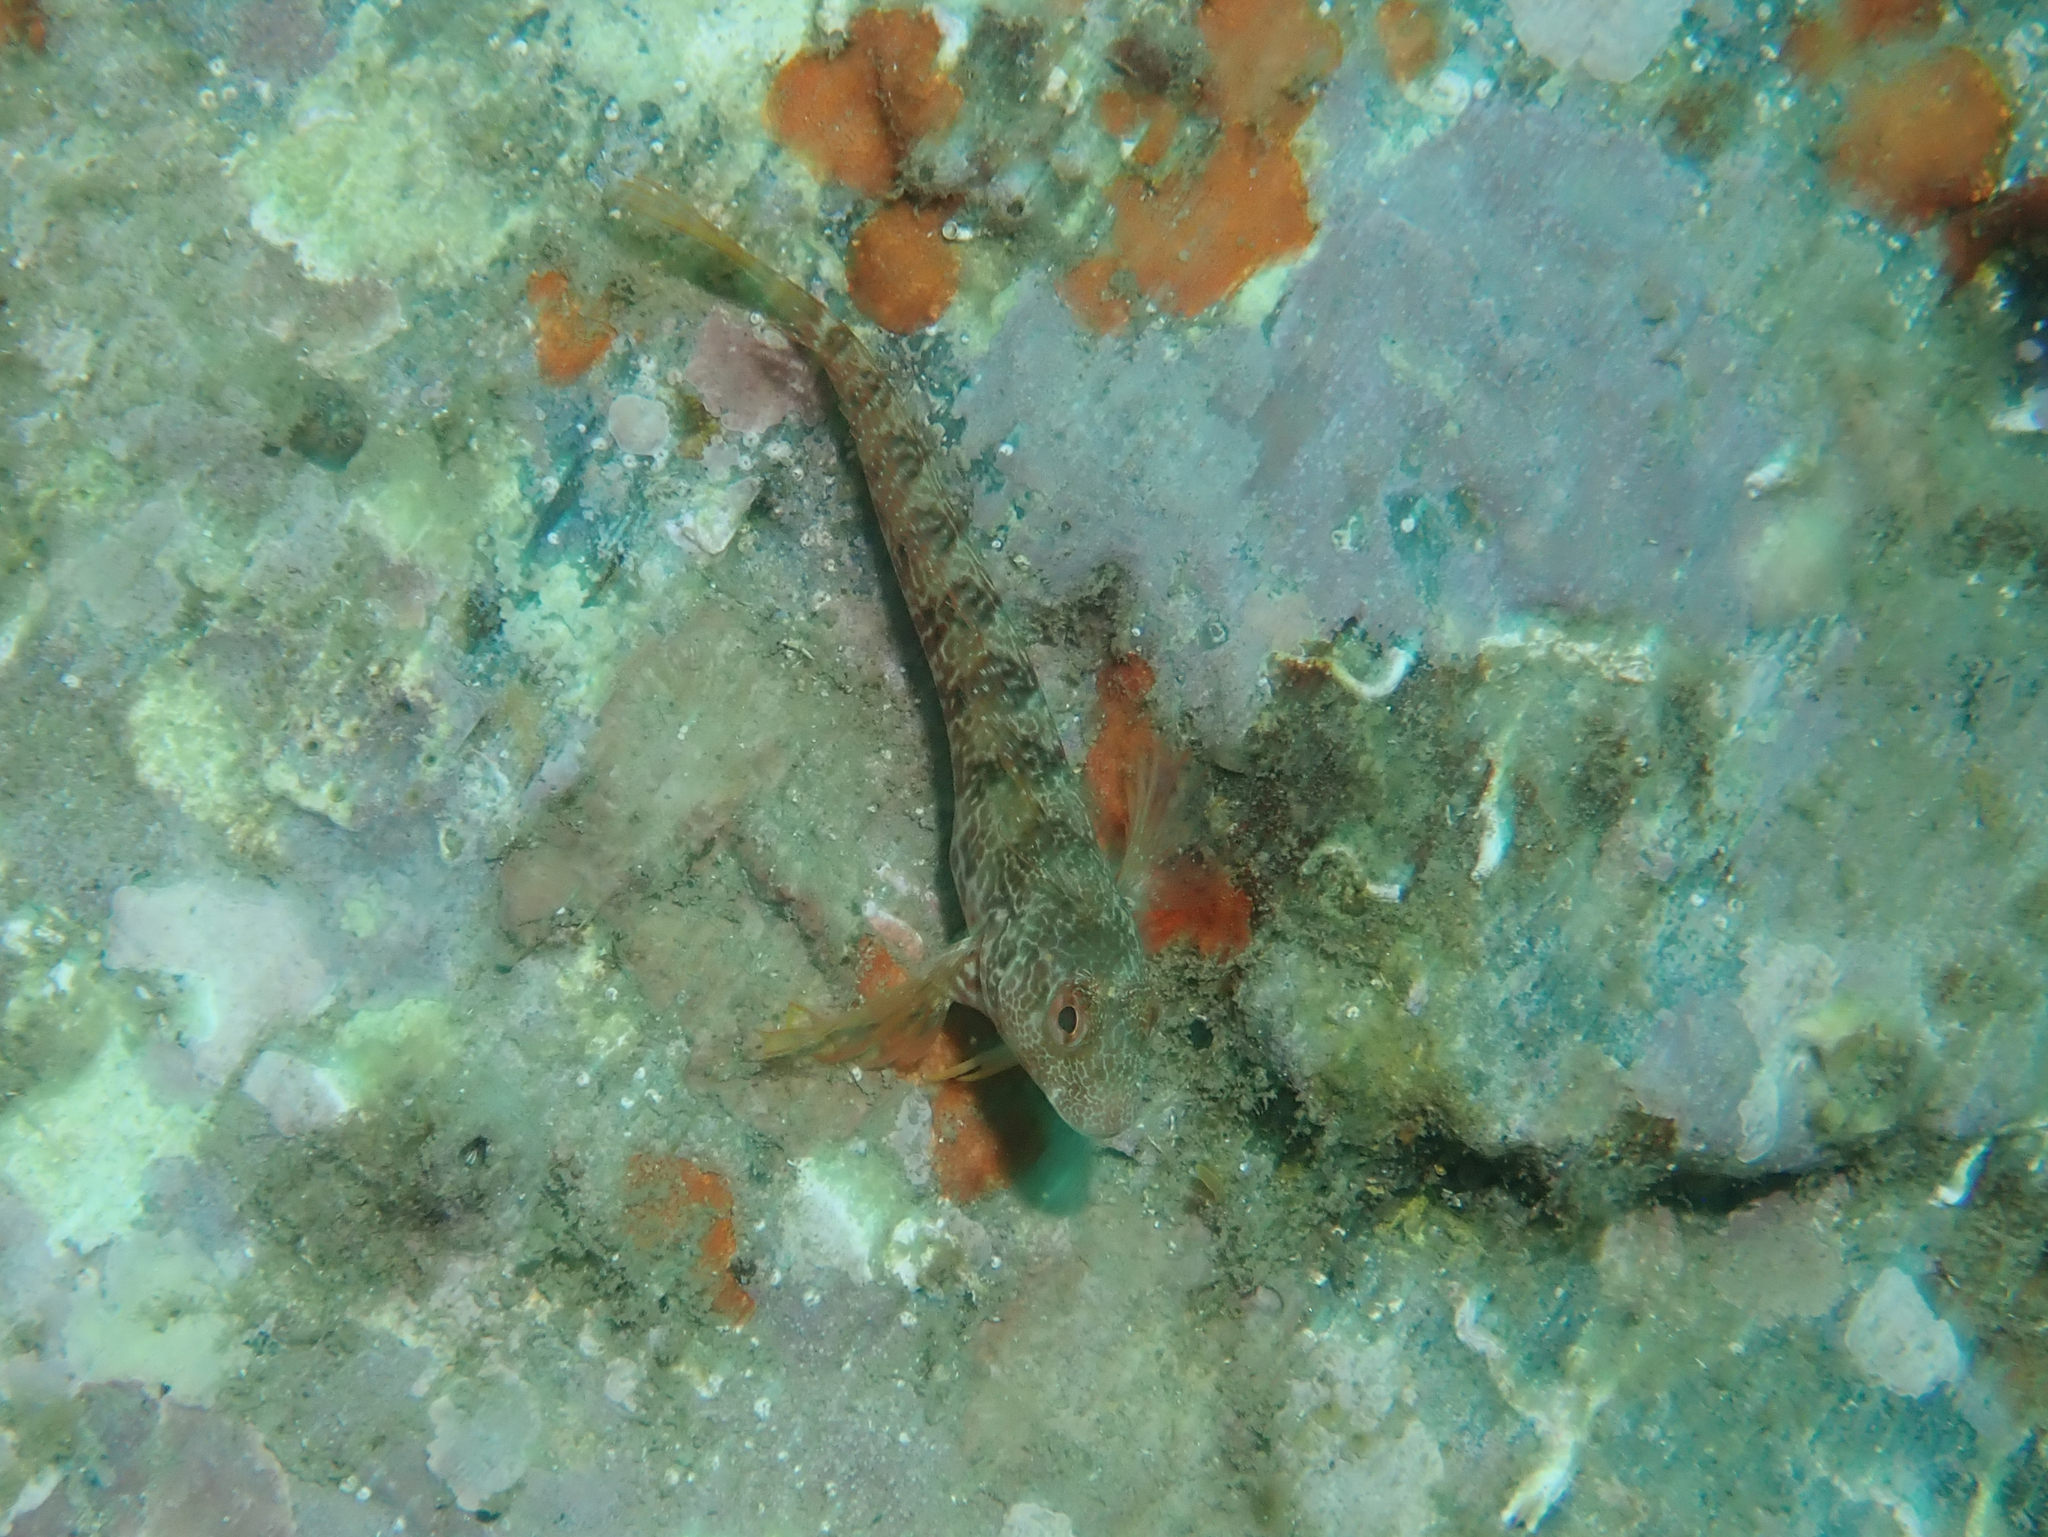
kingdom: Animalia
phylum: Chordata
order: Perciformes
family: Blenniidae
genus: Parablennius
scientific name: Parablennius pilicornis
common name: Ringneck blenny
